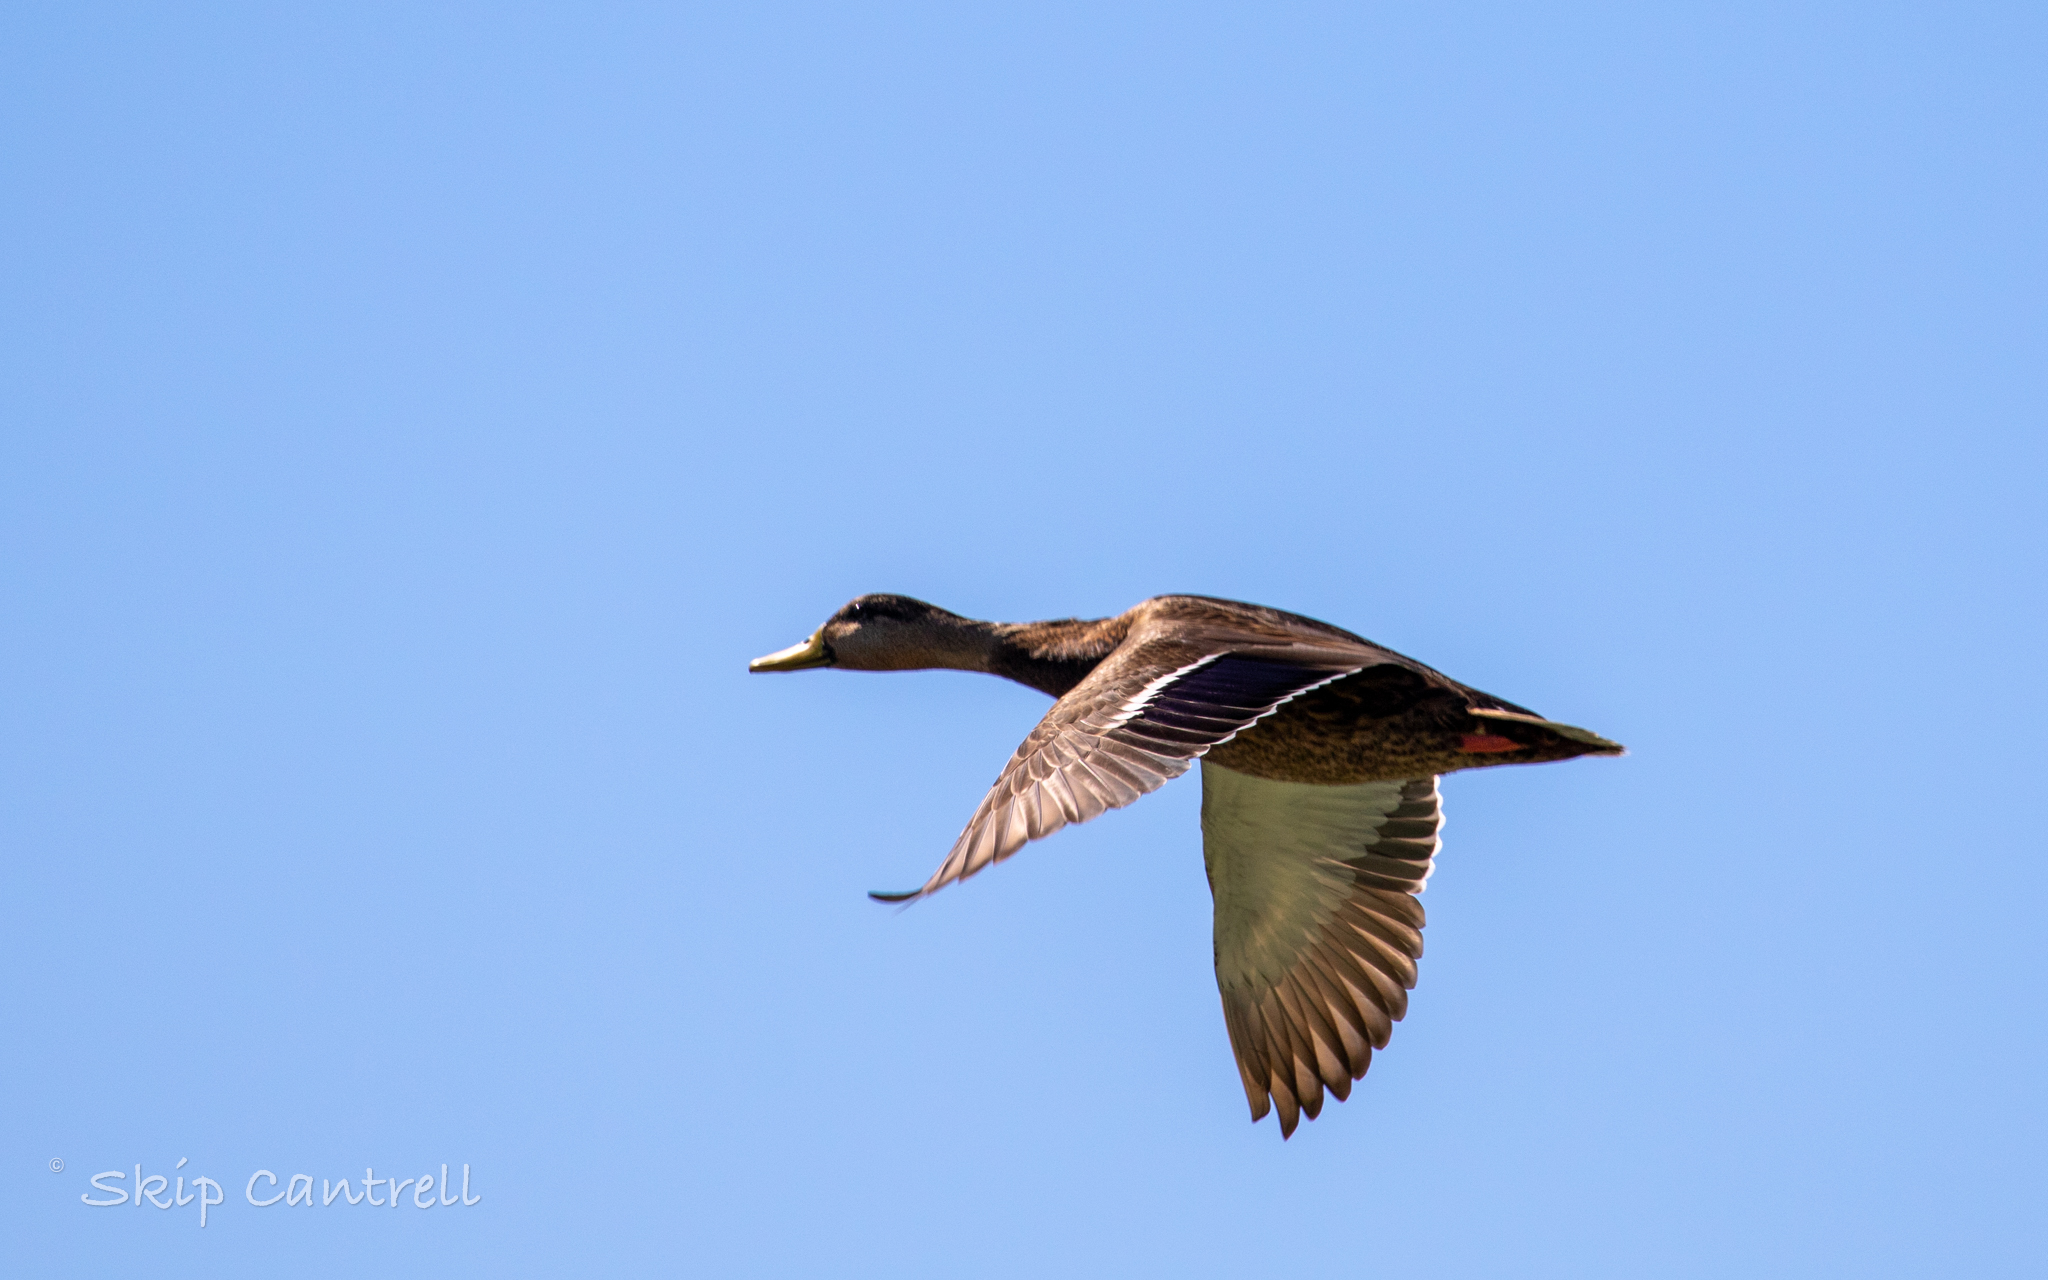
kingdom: Animalia
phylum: Chordata
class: Aves
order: Anseriformes
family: Anatidae
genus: Anas
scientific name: Anas diazi
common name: Mexican duck
